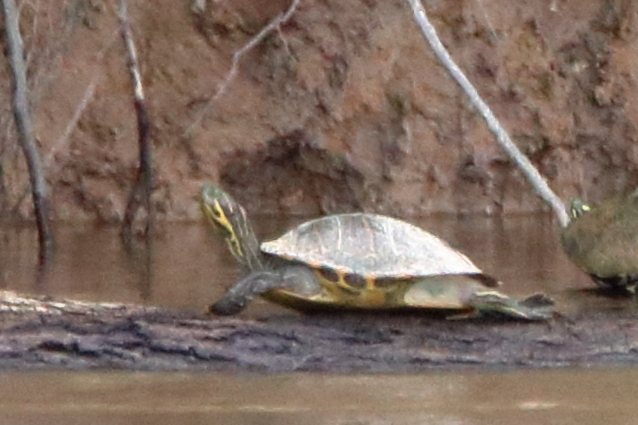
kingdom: Animalia
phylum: Chordata
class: Testudines
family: Emydidae
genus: Pseudemys
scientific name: Pseudemys concinna
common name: Eastern river cooter
